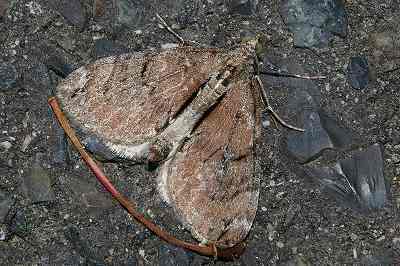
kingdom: Animalia
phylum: Arthropoda
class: Insecta
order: Lepidoptera
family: Geometridae
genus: Heterothera
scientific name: Heterothera postalbida
